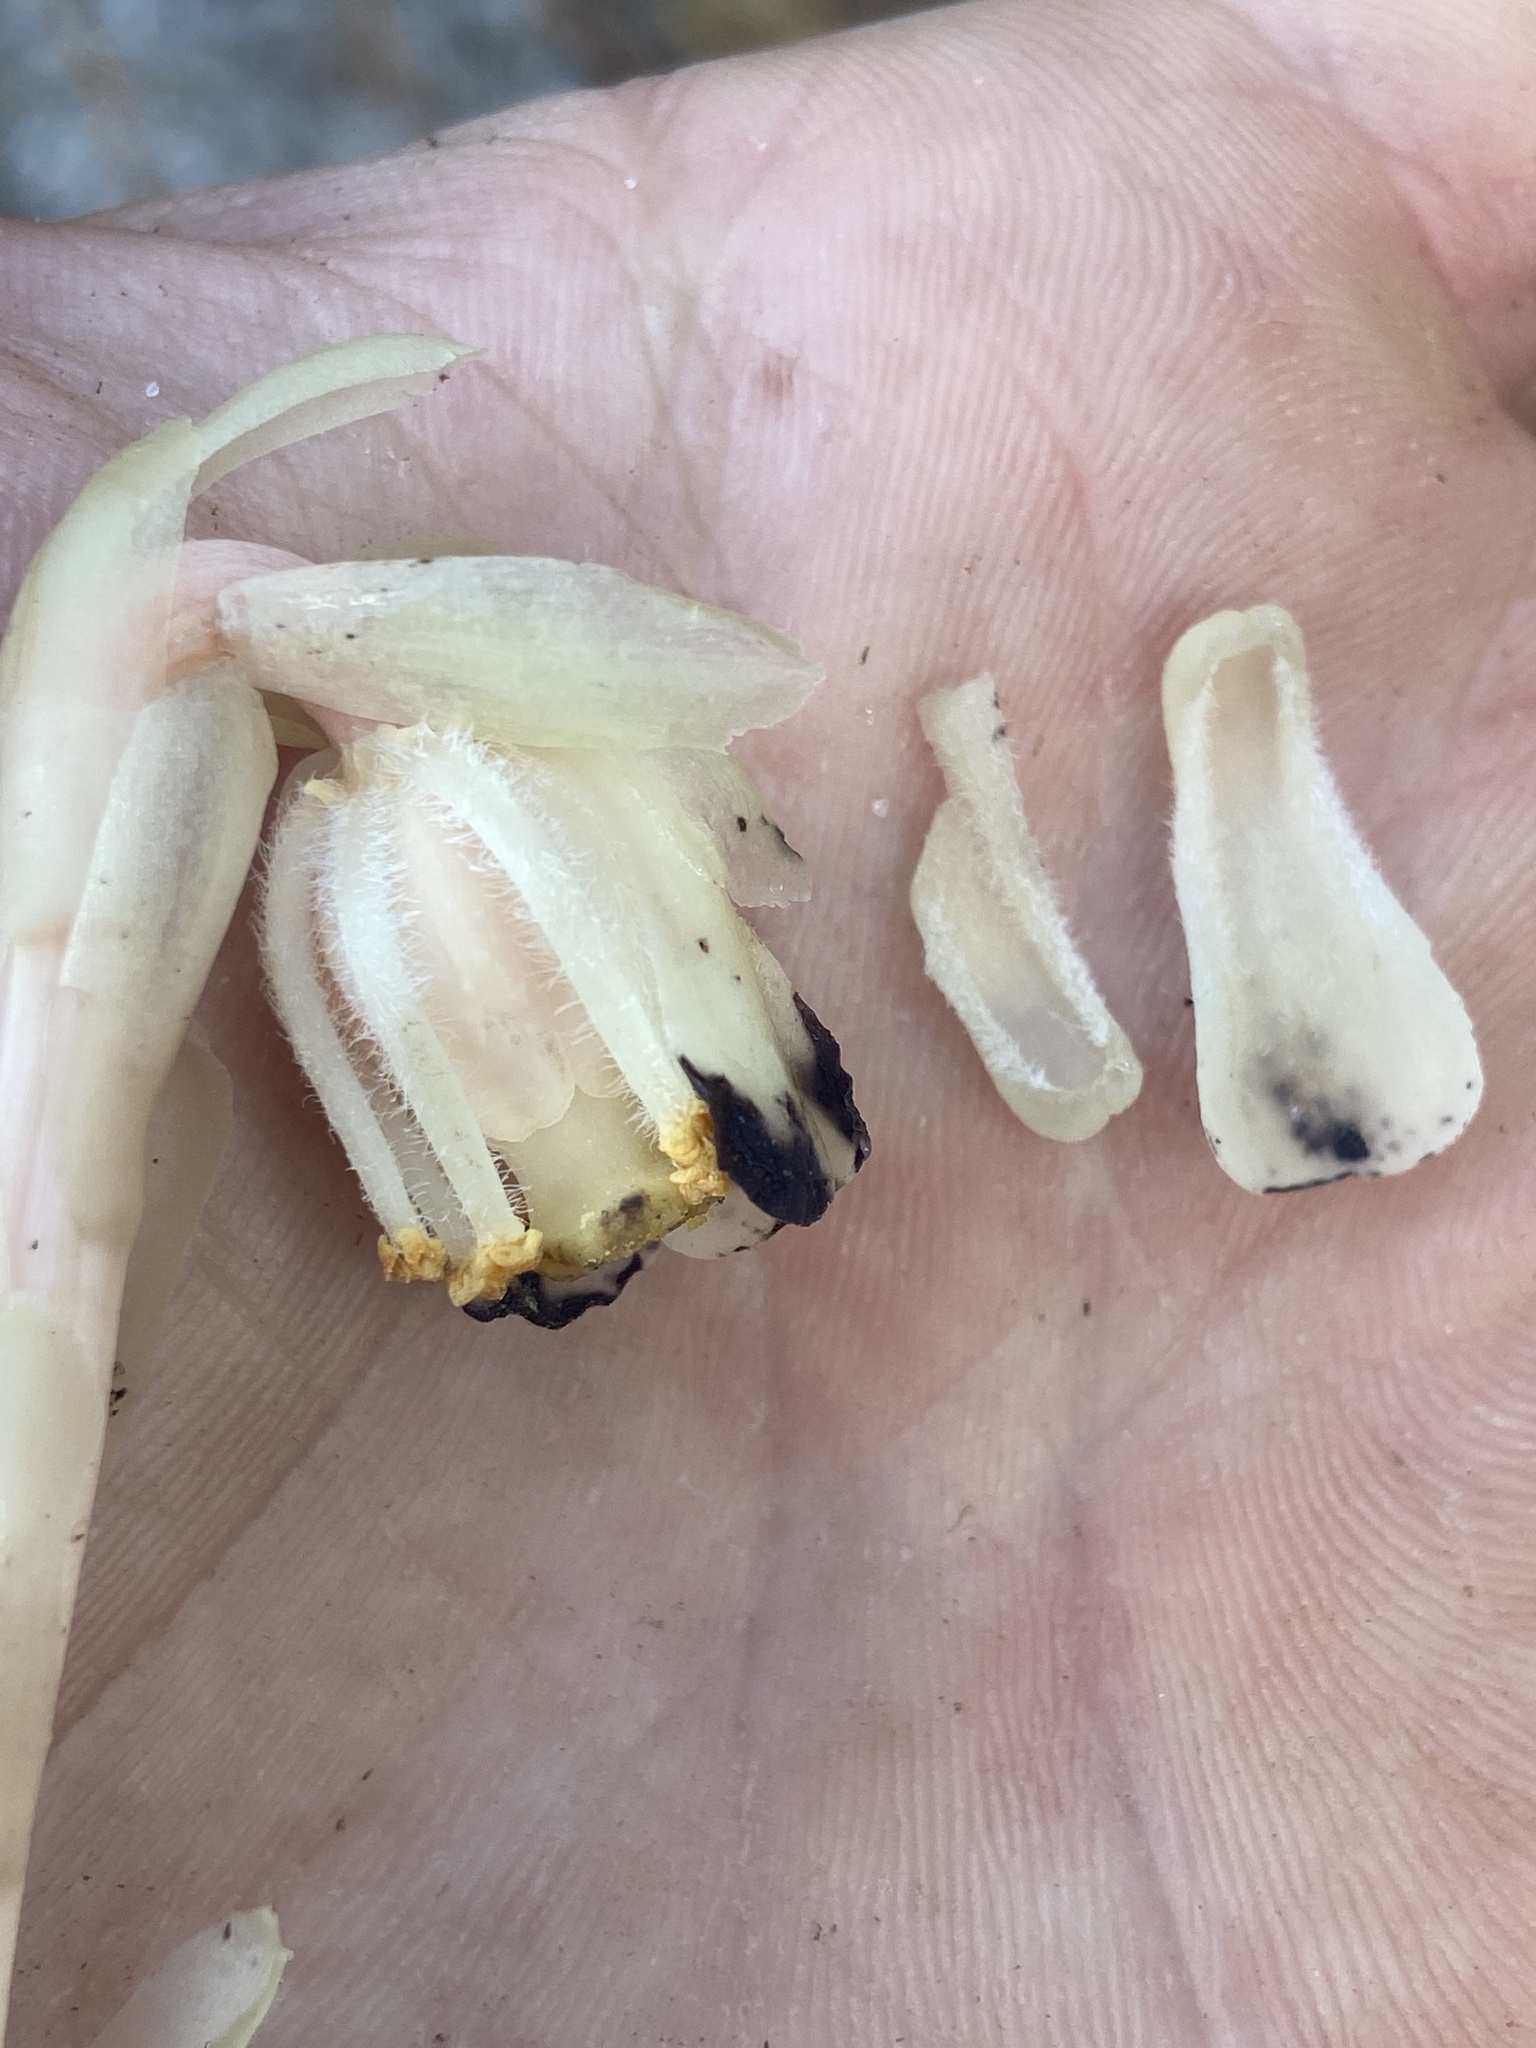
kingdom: Plantae
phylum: Tracheophyta
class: Magnoliopsida
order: Ericales
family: Ericaceae
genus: Monotropa
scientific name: Monotropa uniflora
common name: Convulsion root
